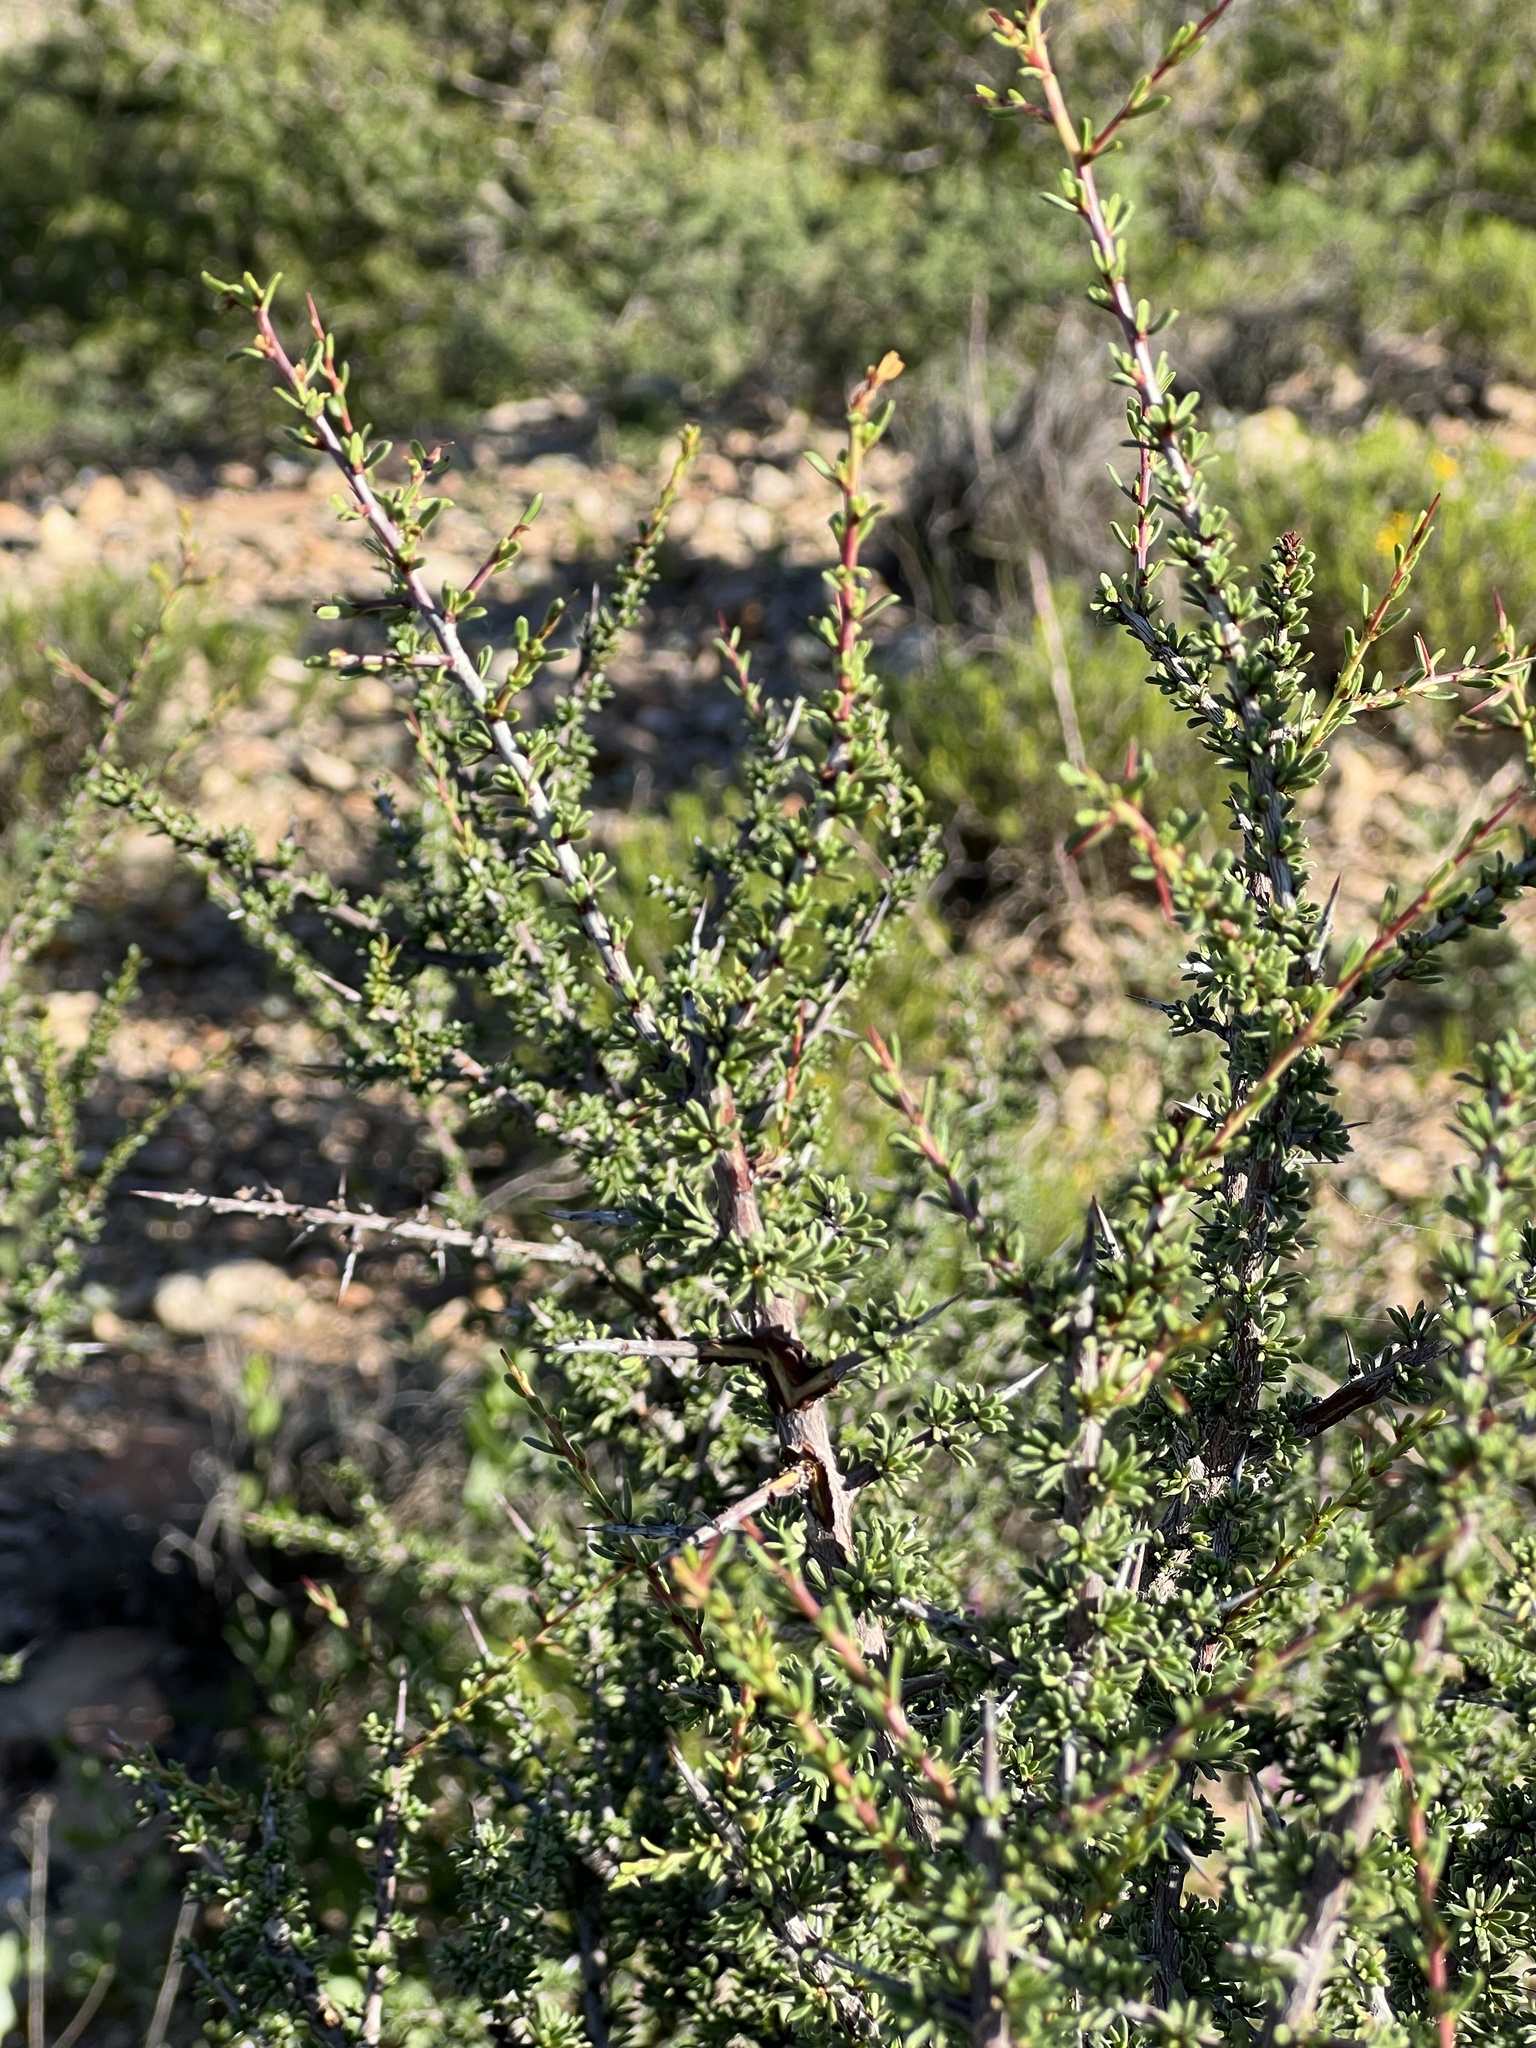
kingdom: Plantae
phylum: Tracheophyta
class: Magnoliopsida
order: Rosales
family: Rhamnaceae
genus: Condalia
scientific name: Condalia ericoides
